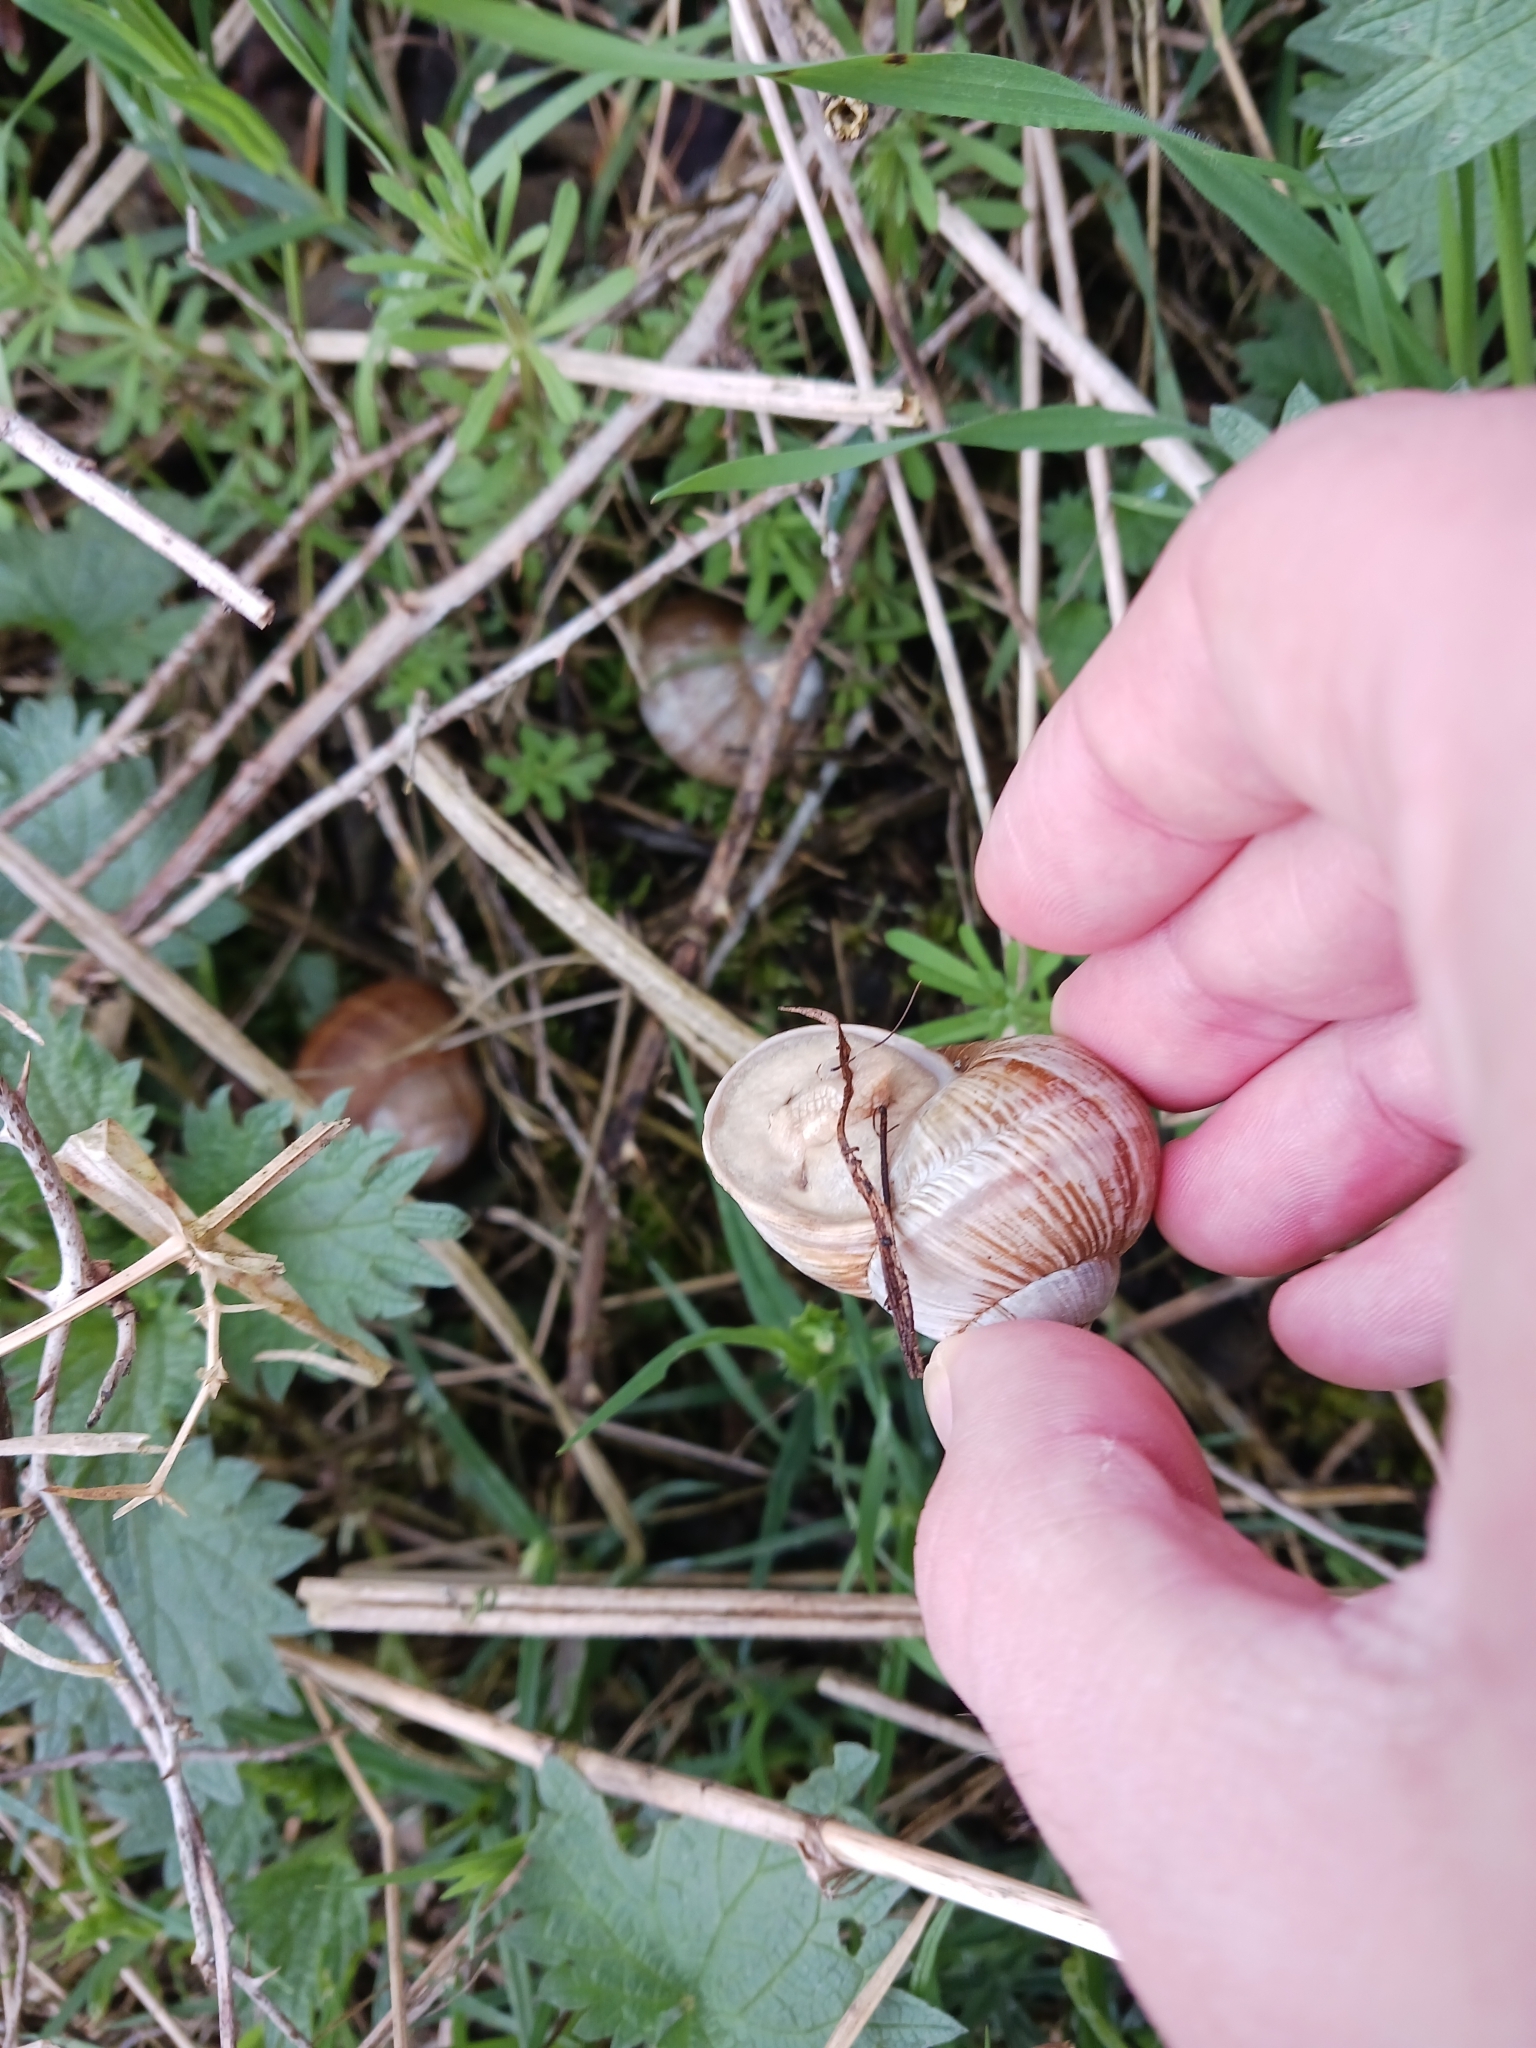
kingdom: Animalia
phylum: Mollusca
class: Gastropoda
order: Stylommatophora
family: Helicidae
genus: Helix
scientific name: Helix pomatia
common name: Roman snail
